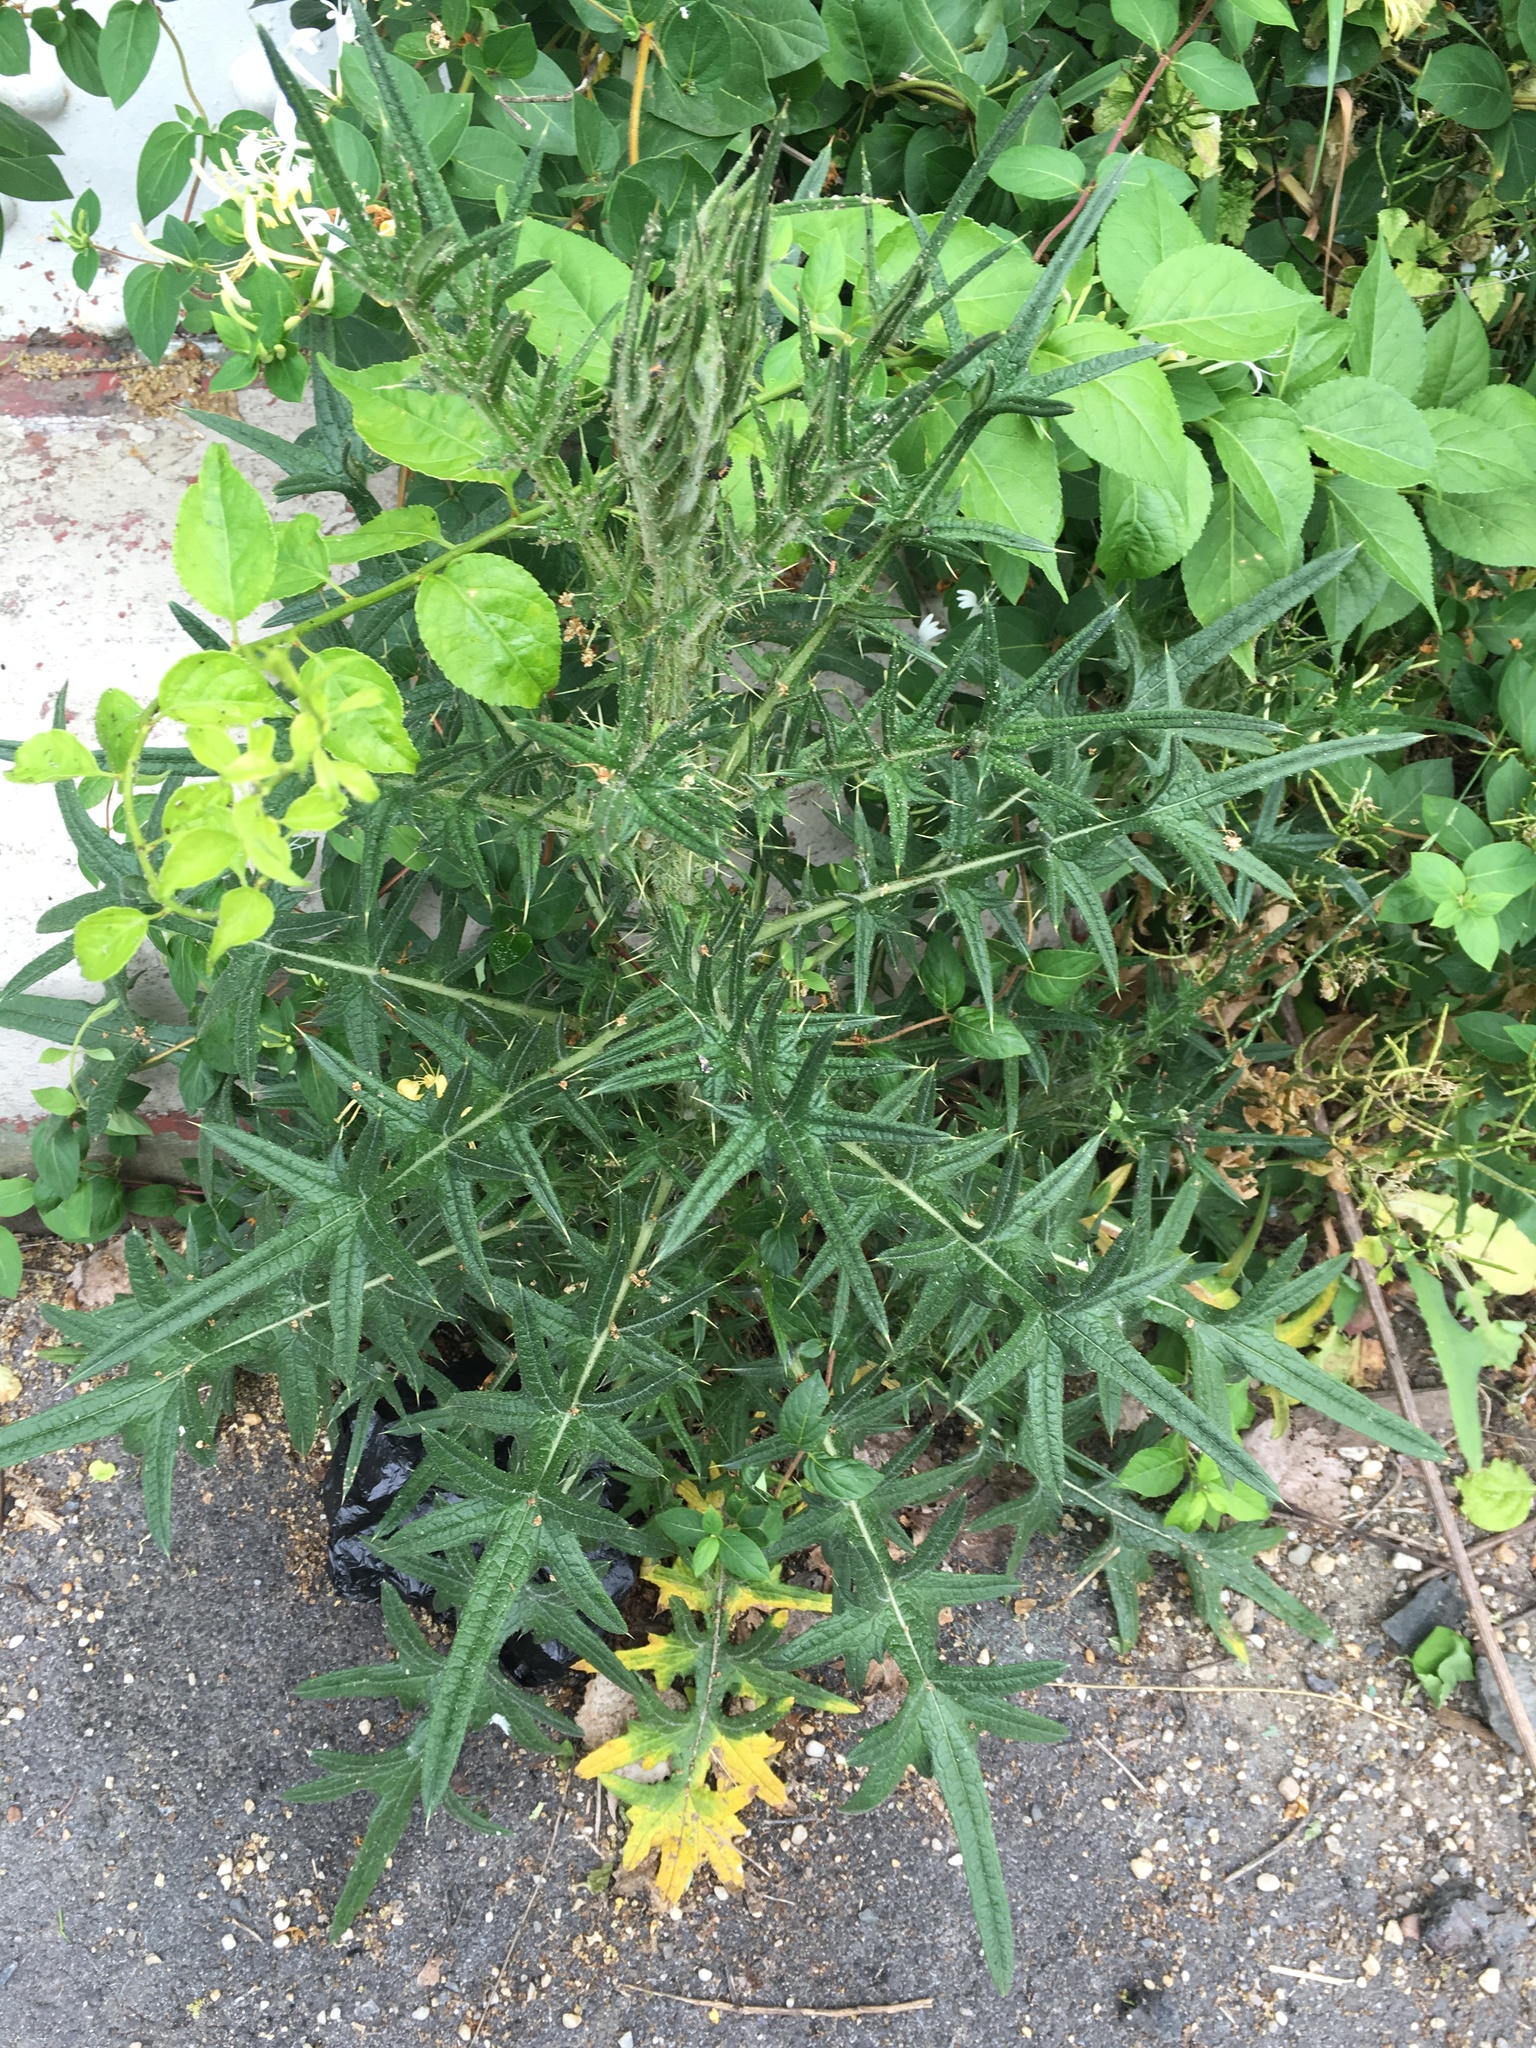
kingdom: Plantae
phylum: Tracheophyta
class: Magnoliopsida
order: Asterales
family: Asteraceae
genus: Cirsium
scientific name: Cirsium vulgare
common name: Bull thistle
